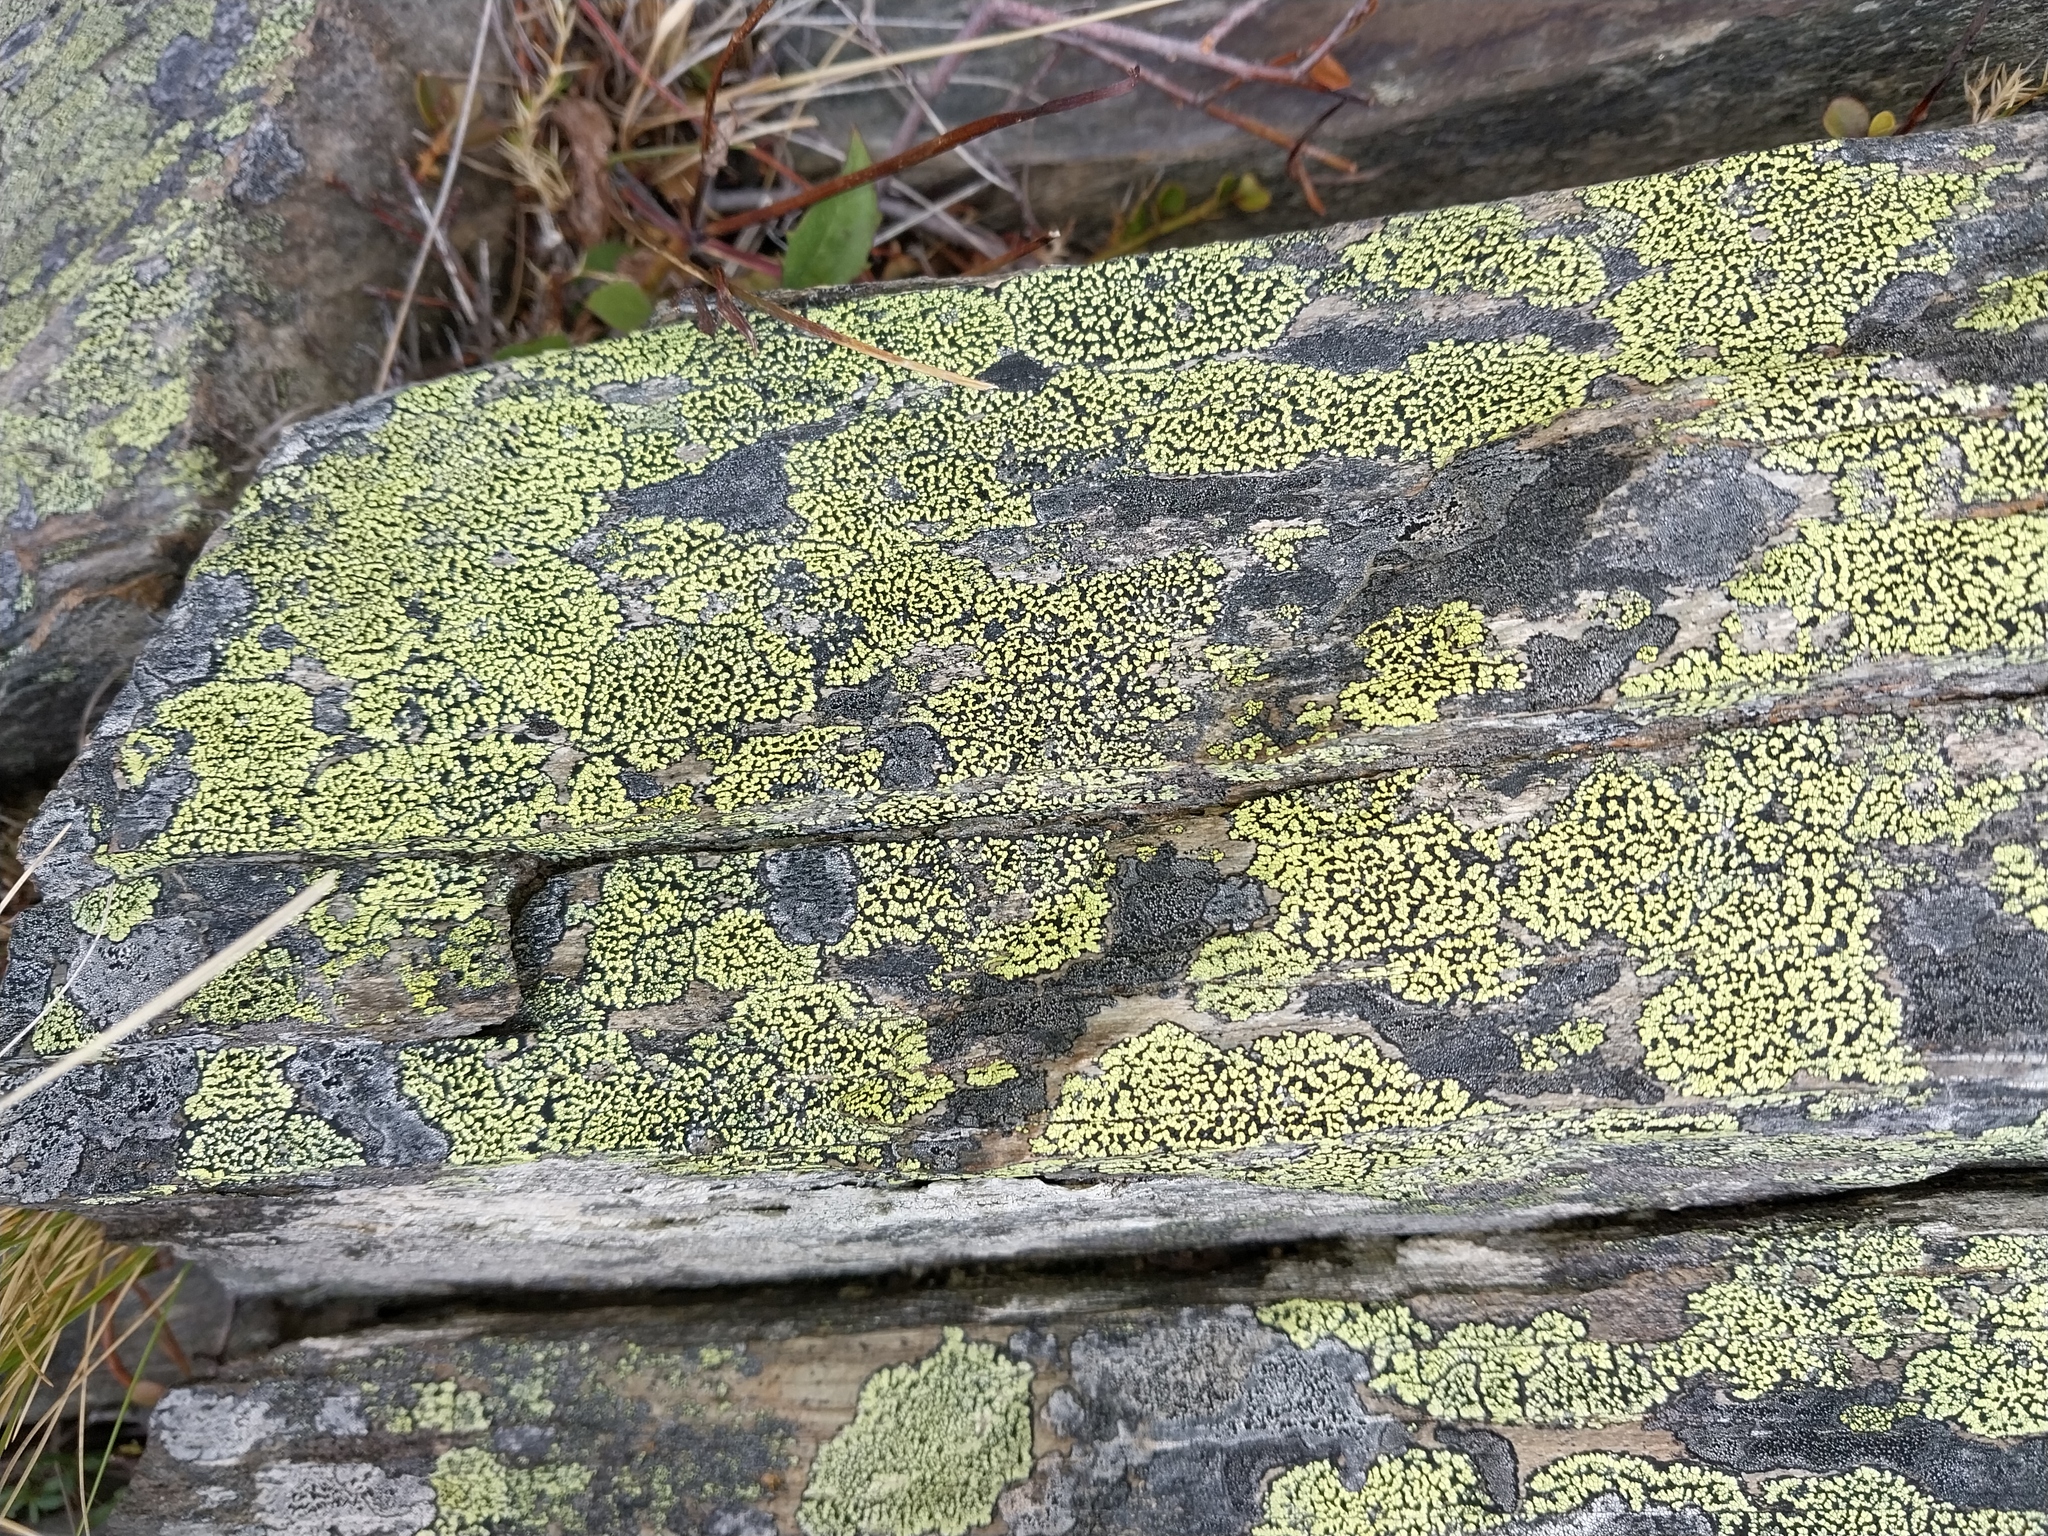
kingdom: Fungi
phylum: Ascomycota
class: Lecanoromycetes
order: Rhizocarpales
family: Rhizocarpaceae
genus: Rhizocarpon
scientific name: Rhizocarpon geographicum
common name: Yellow map lichen
